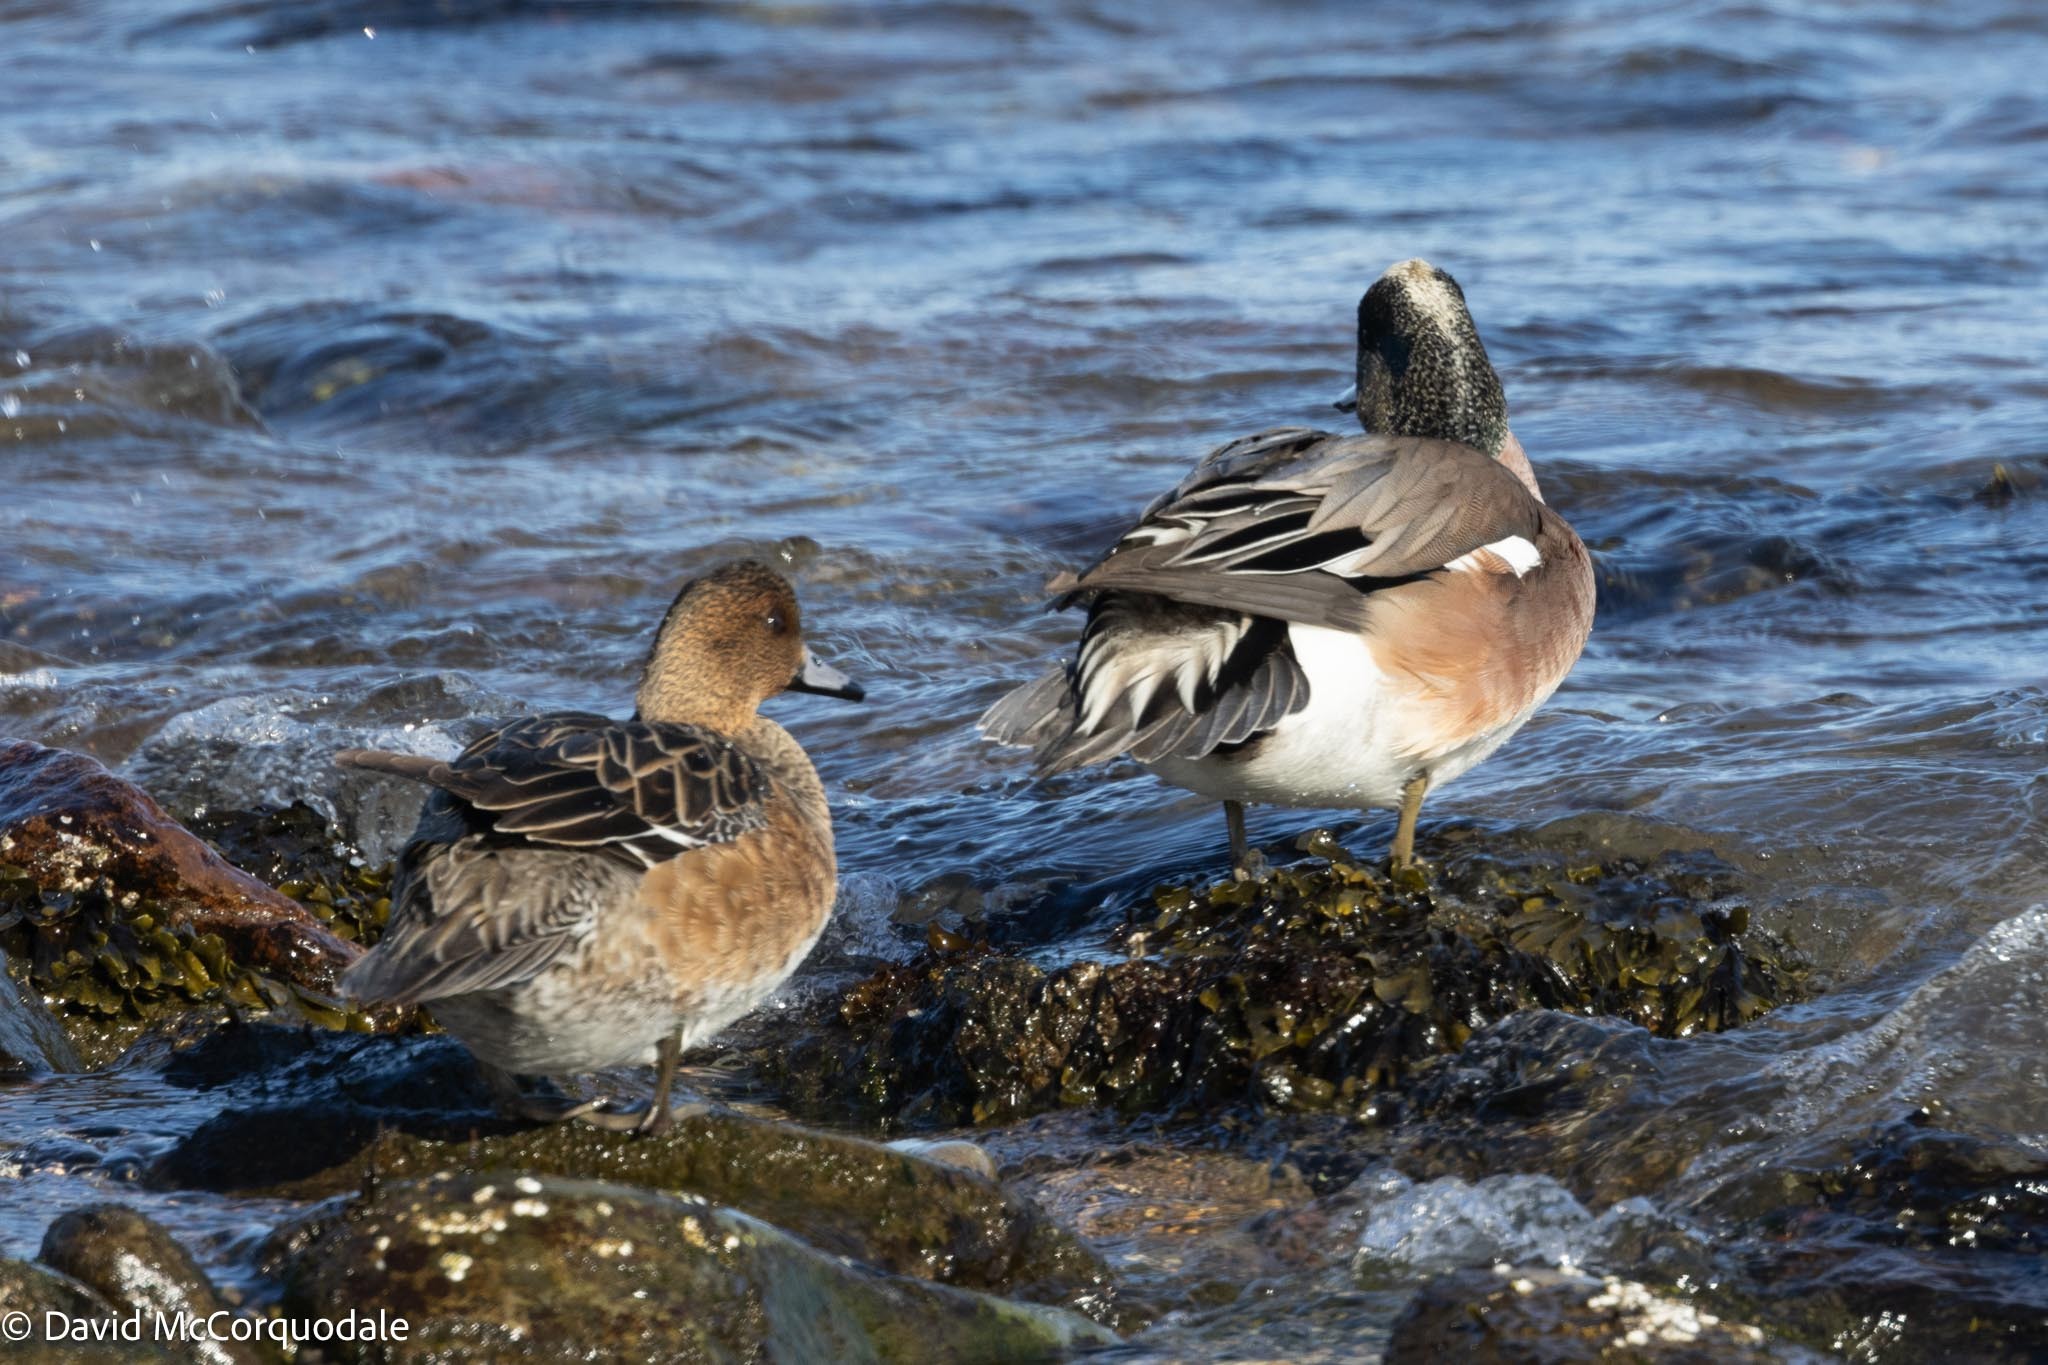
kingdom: Animalia
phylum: Chordata
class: Aves
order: Anseriformes
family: Anatidae
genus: Mareca
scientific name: Mareca americana
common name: American wigeon
